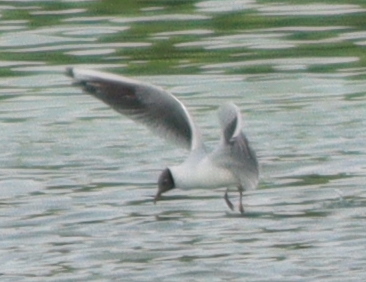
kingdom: Animalia
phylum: Chordata
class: Aves
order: Charadriiformes
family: Laridae
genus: Chroicocephalus
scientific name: Chroicocephalus ridibundus
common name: Black-headed gull
